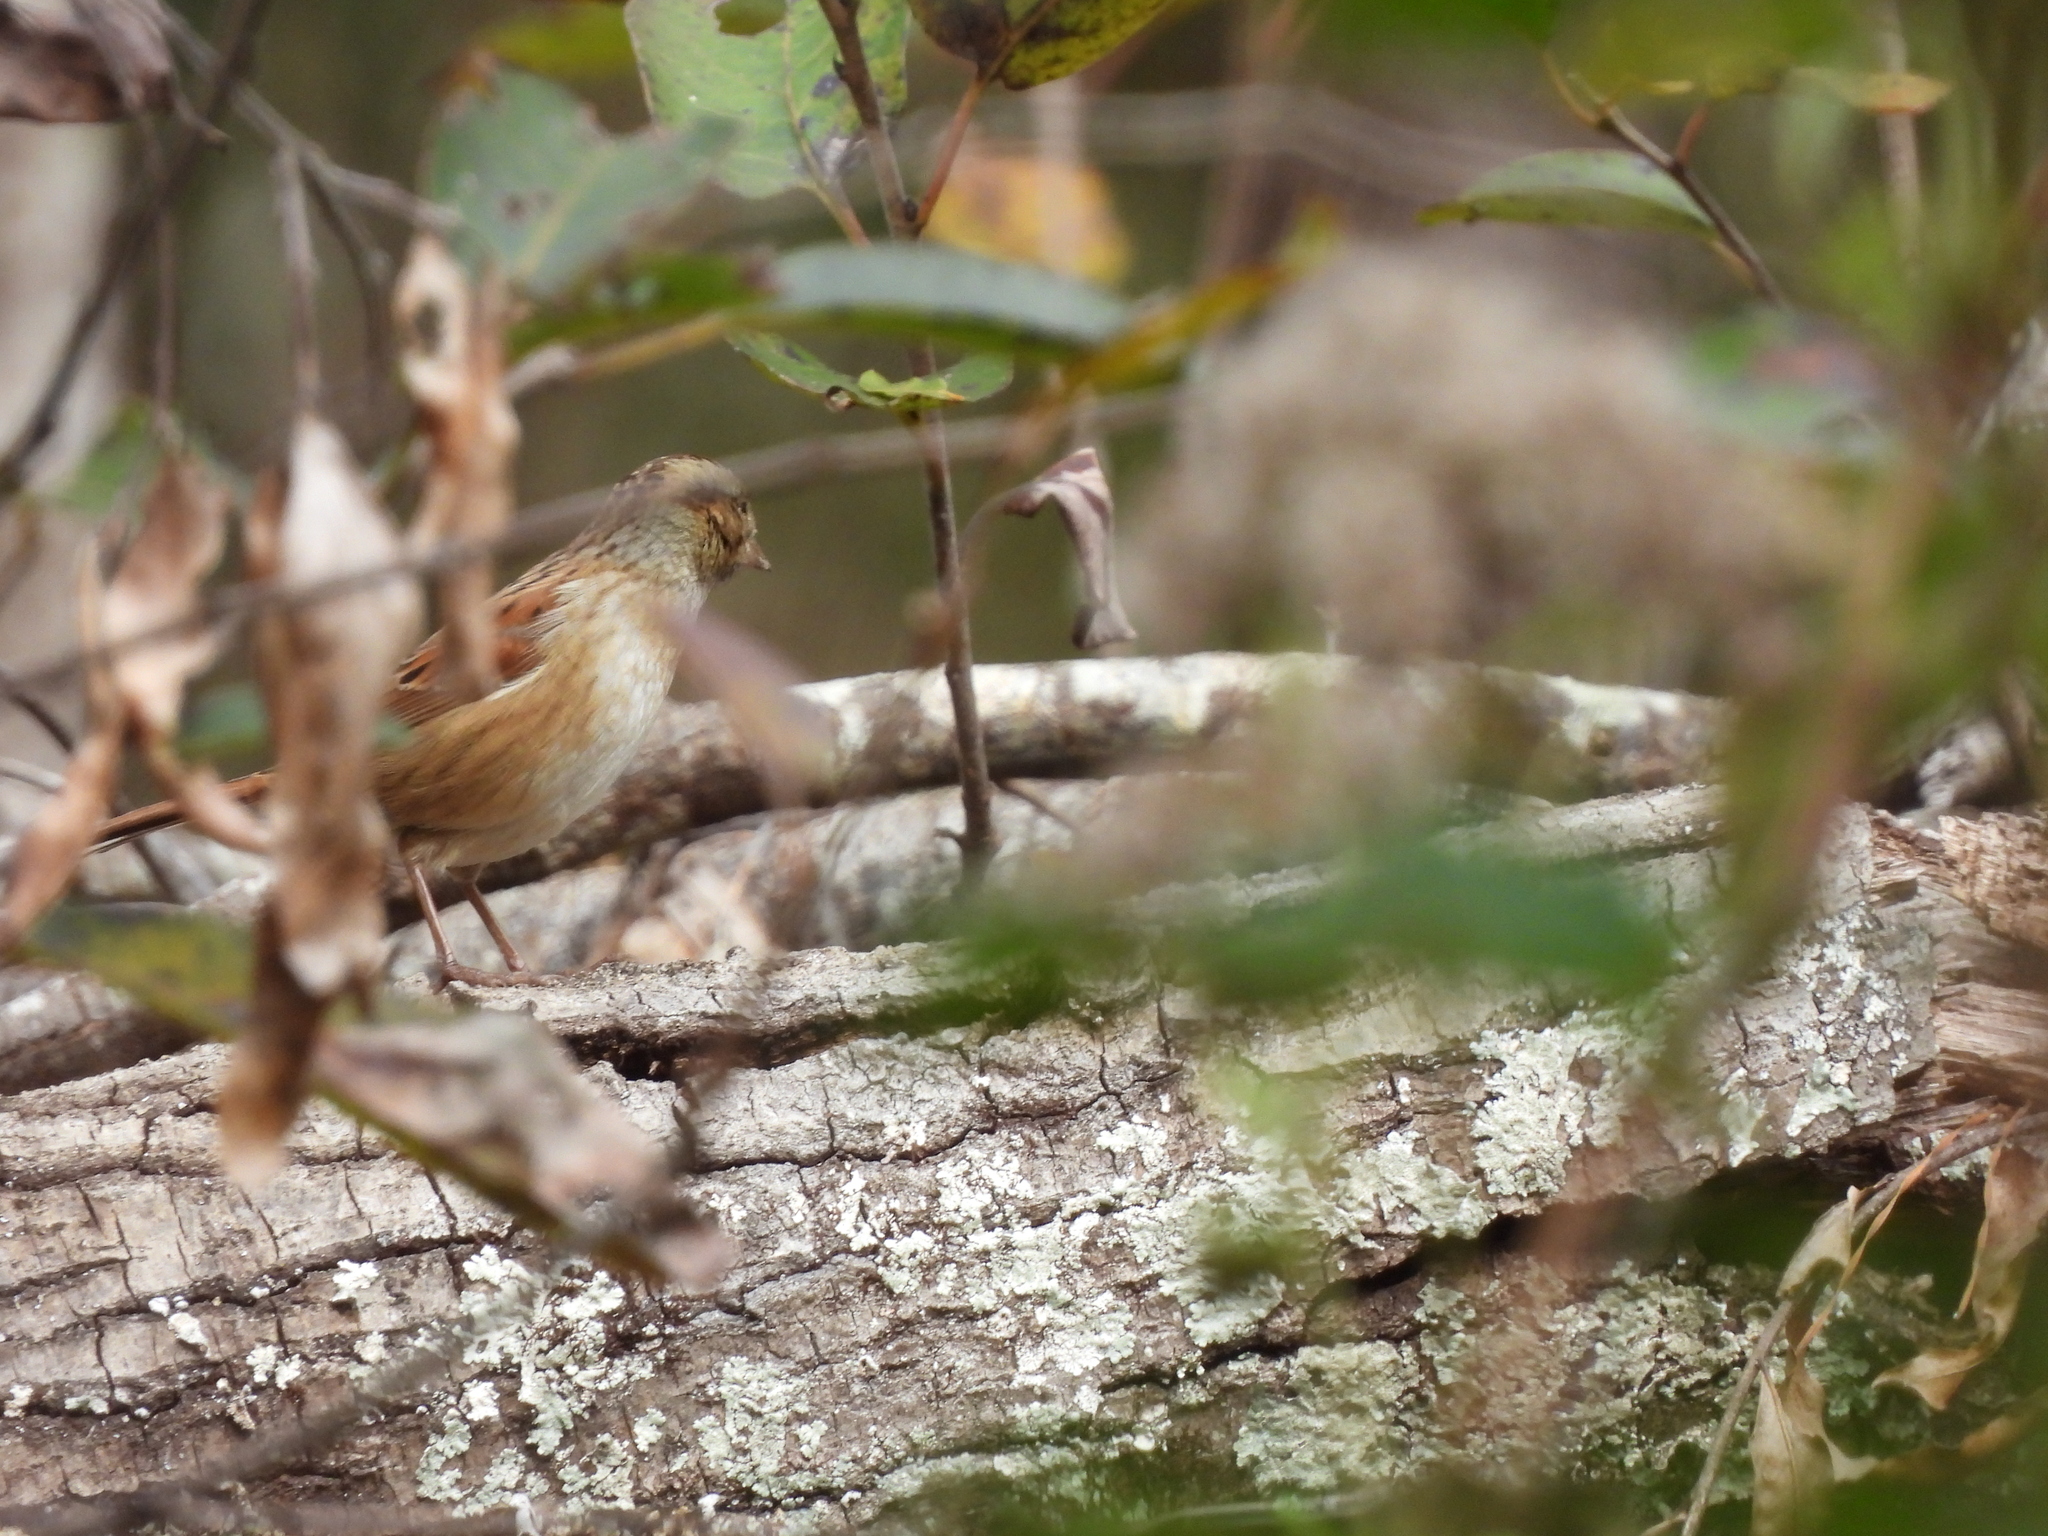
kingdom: Animalia
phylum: Chordata
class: Aves
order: Passeriformes
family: Passerellidae
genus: Melospiza
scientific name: Melospiza georgiana
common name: Swamp sparrow
